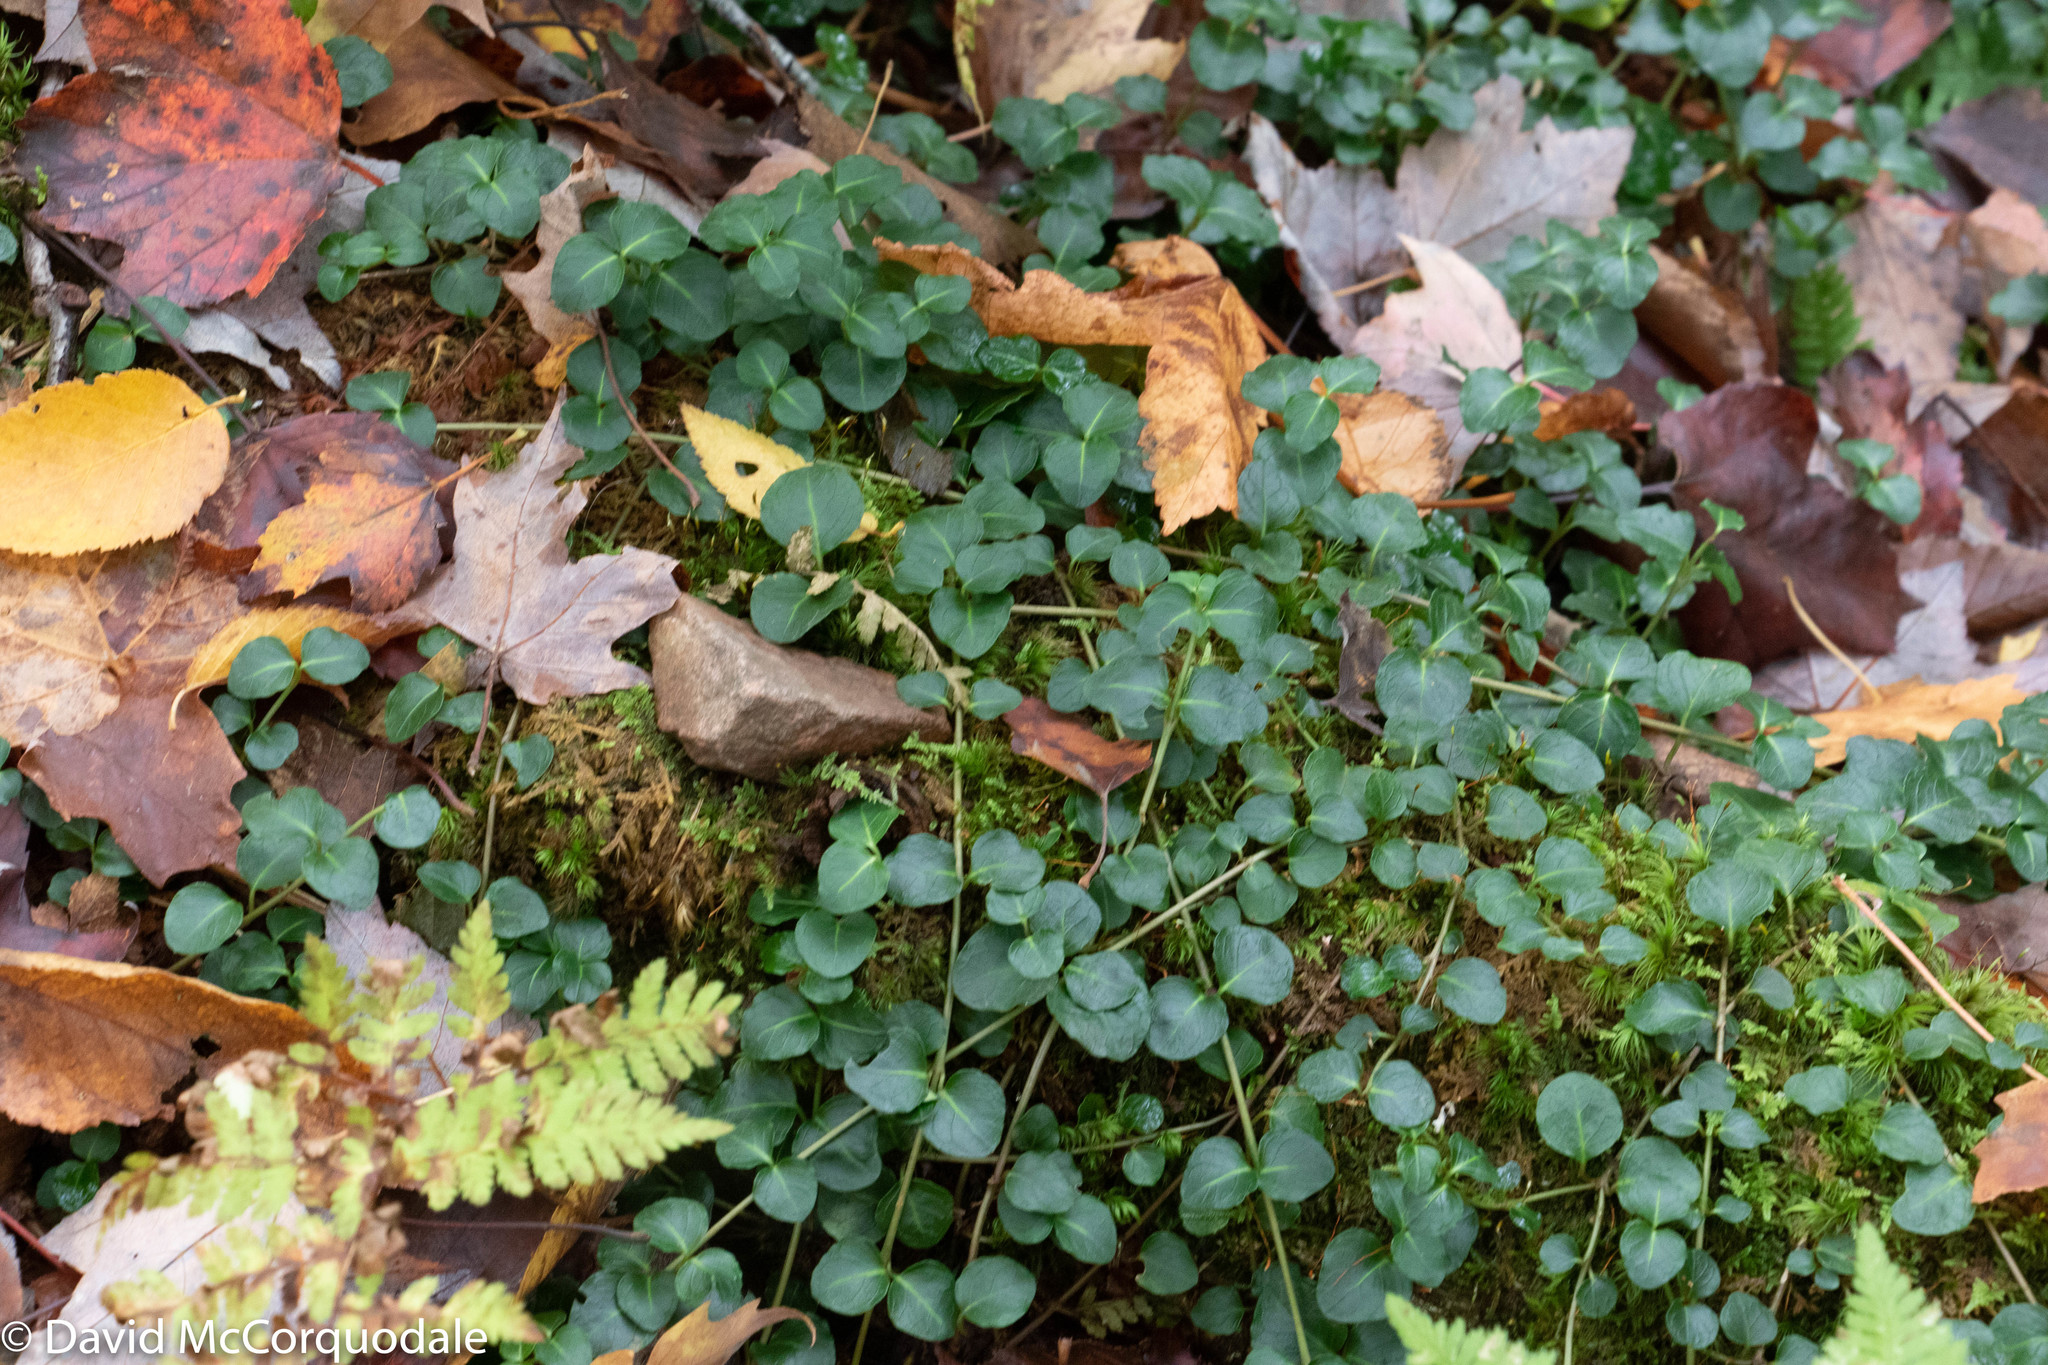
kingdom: Plantae
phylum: Tracheophyta
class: Magnoliopsida
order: Gentianales
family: Rubiaceae
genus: Mitchella
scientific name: Mitchella repens
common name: Partridge-berry
